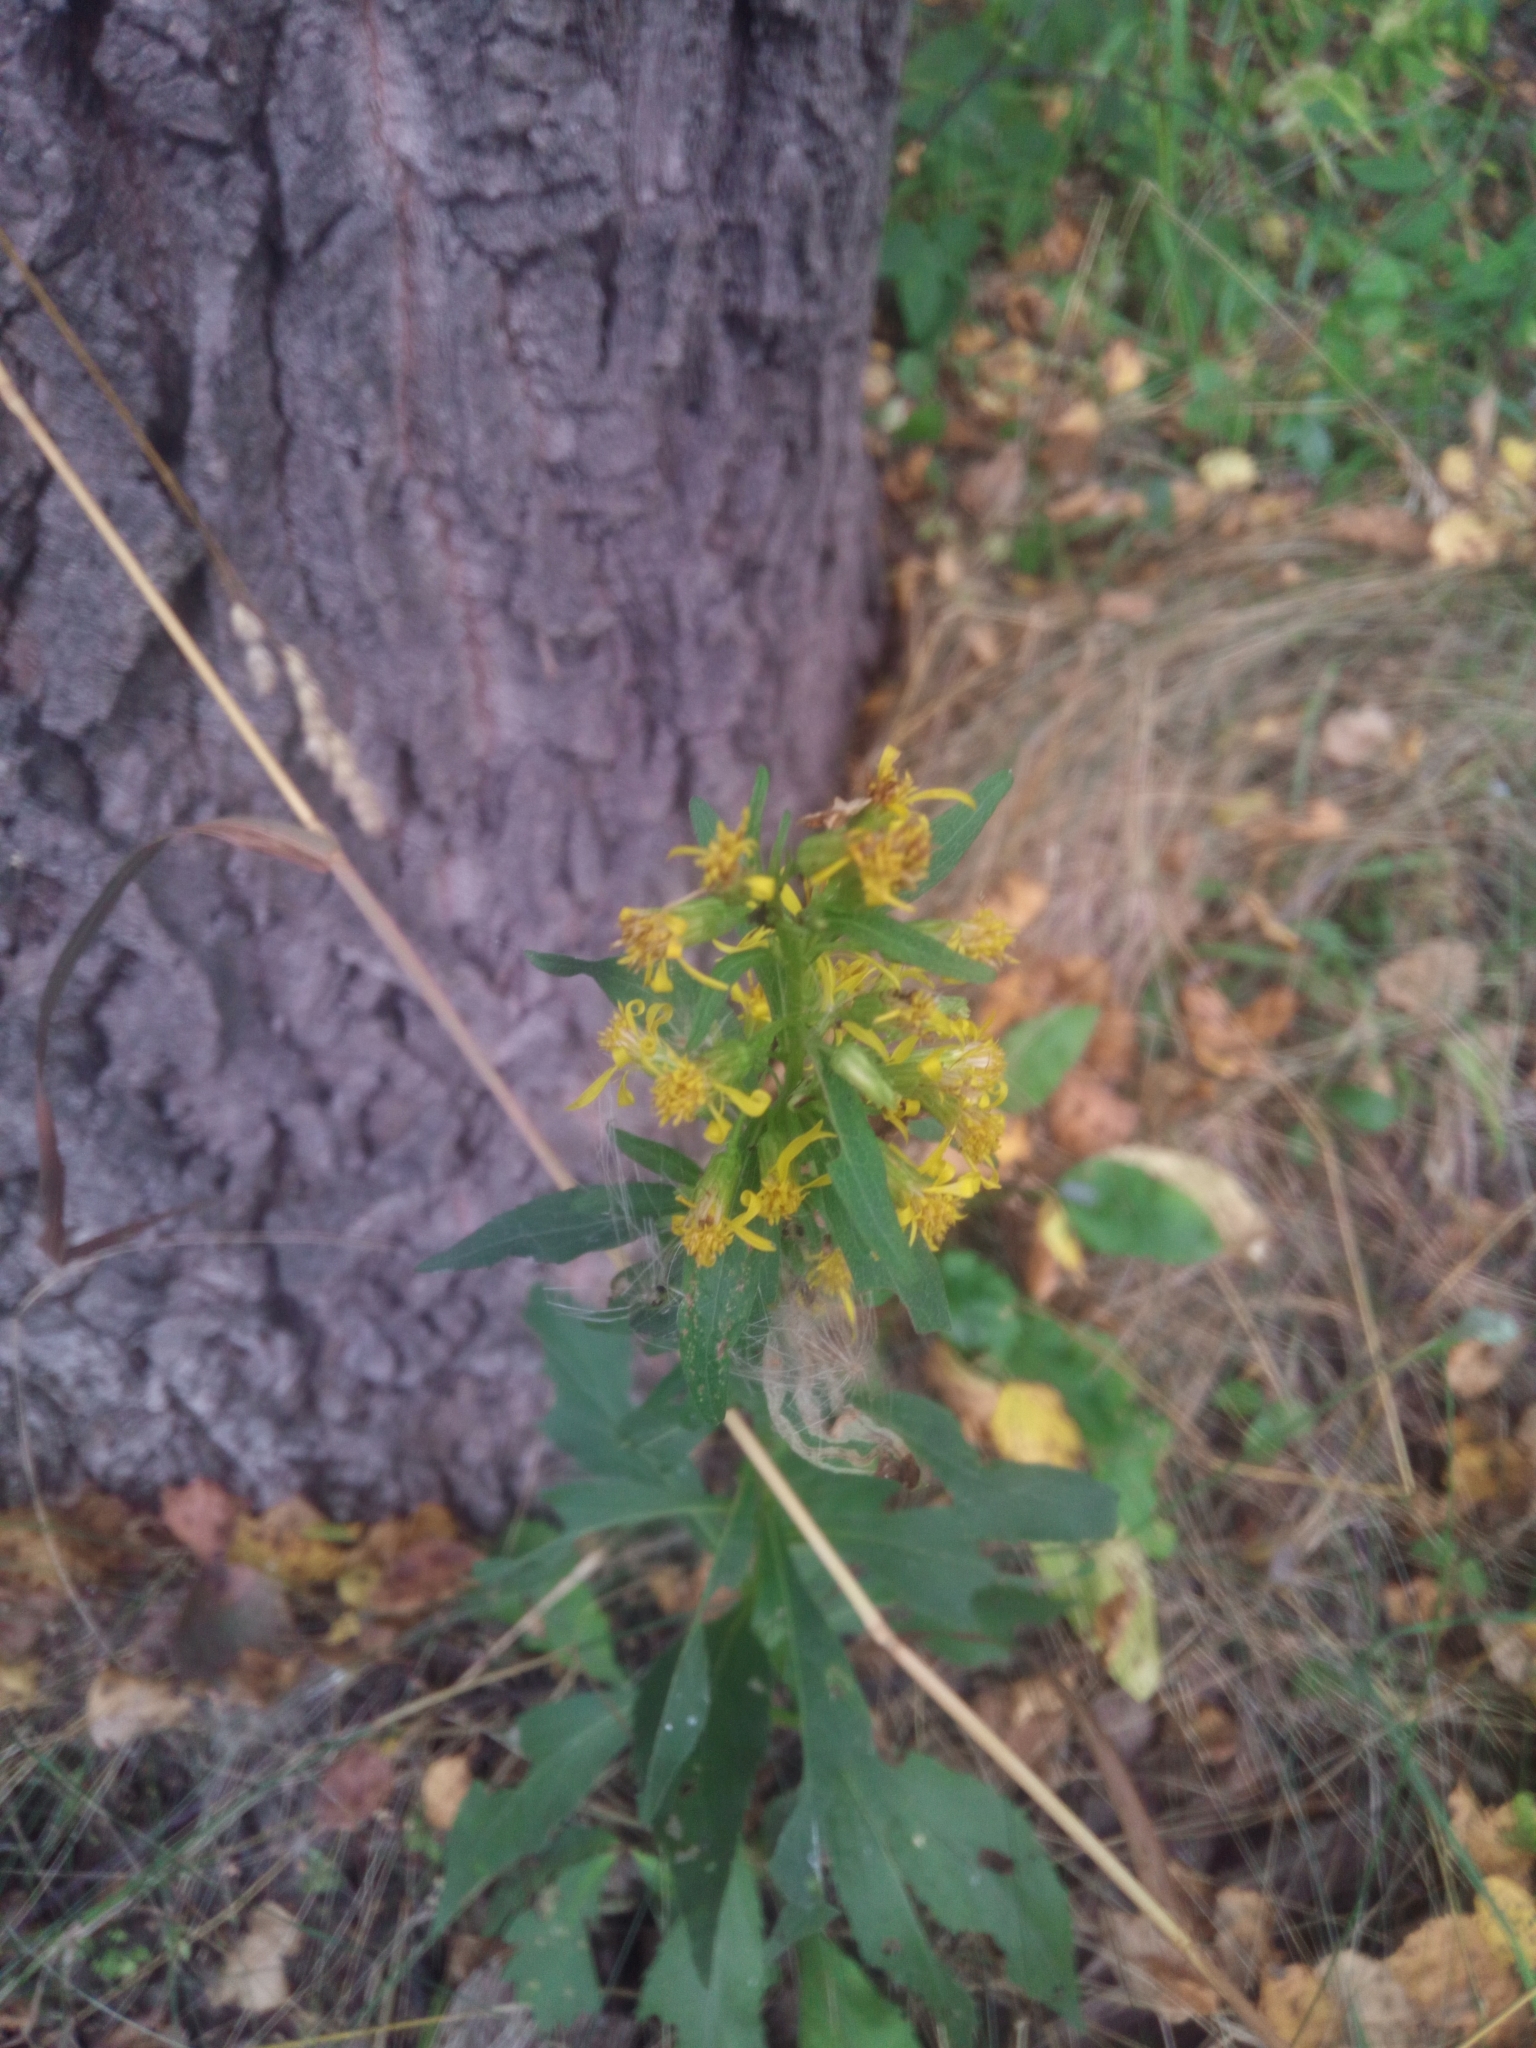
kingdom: Plantae
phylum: Tracheophyta
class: Magnoliopsida
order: Asterales
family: Asteraceae
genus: Solidago
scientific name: Solidago virgaurea
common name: Goldenrod
